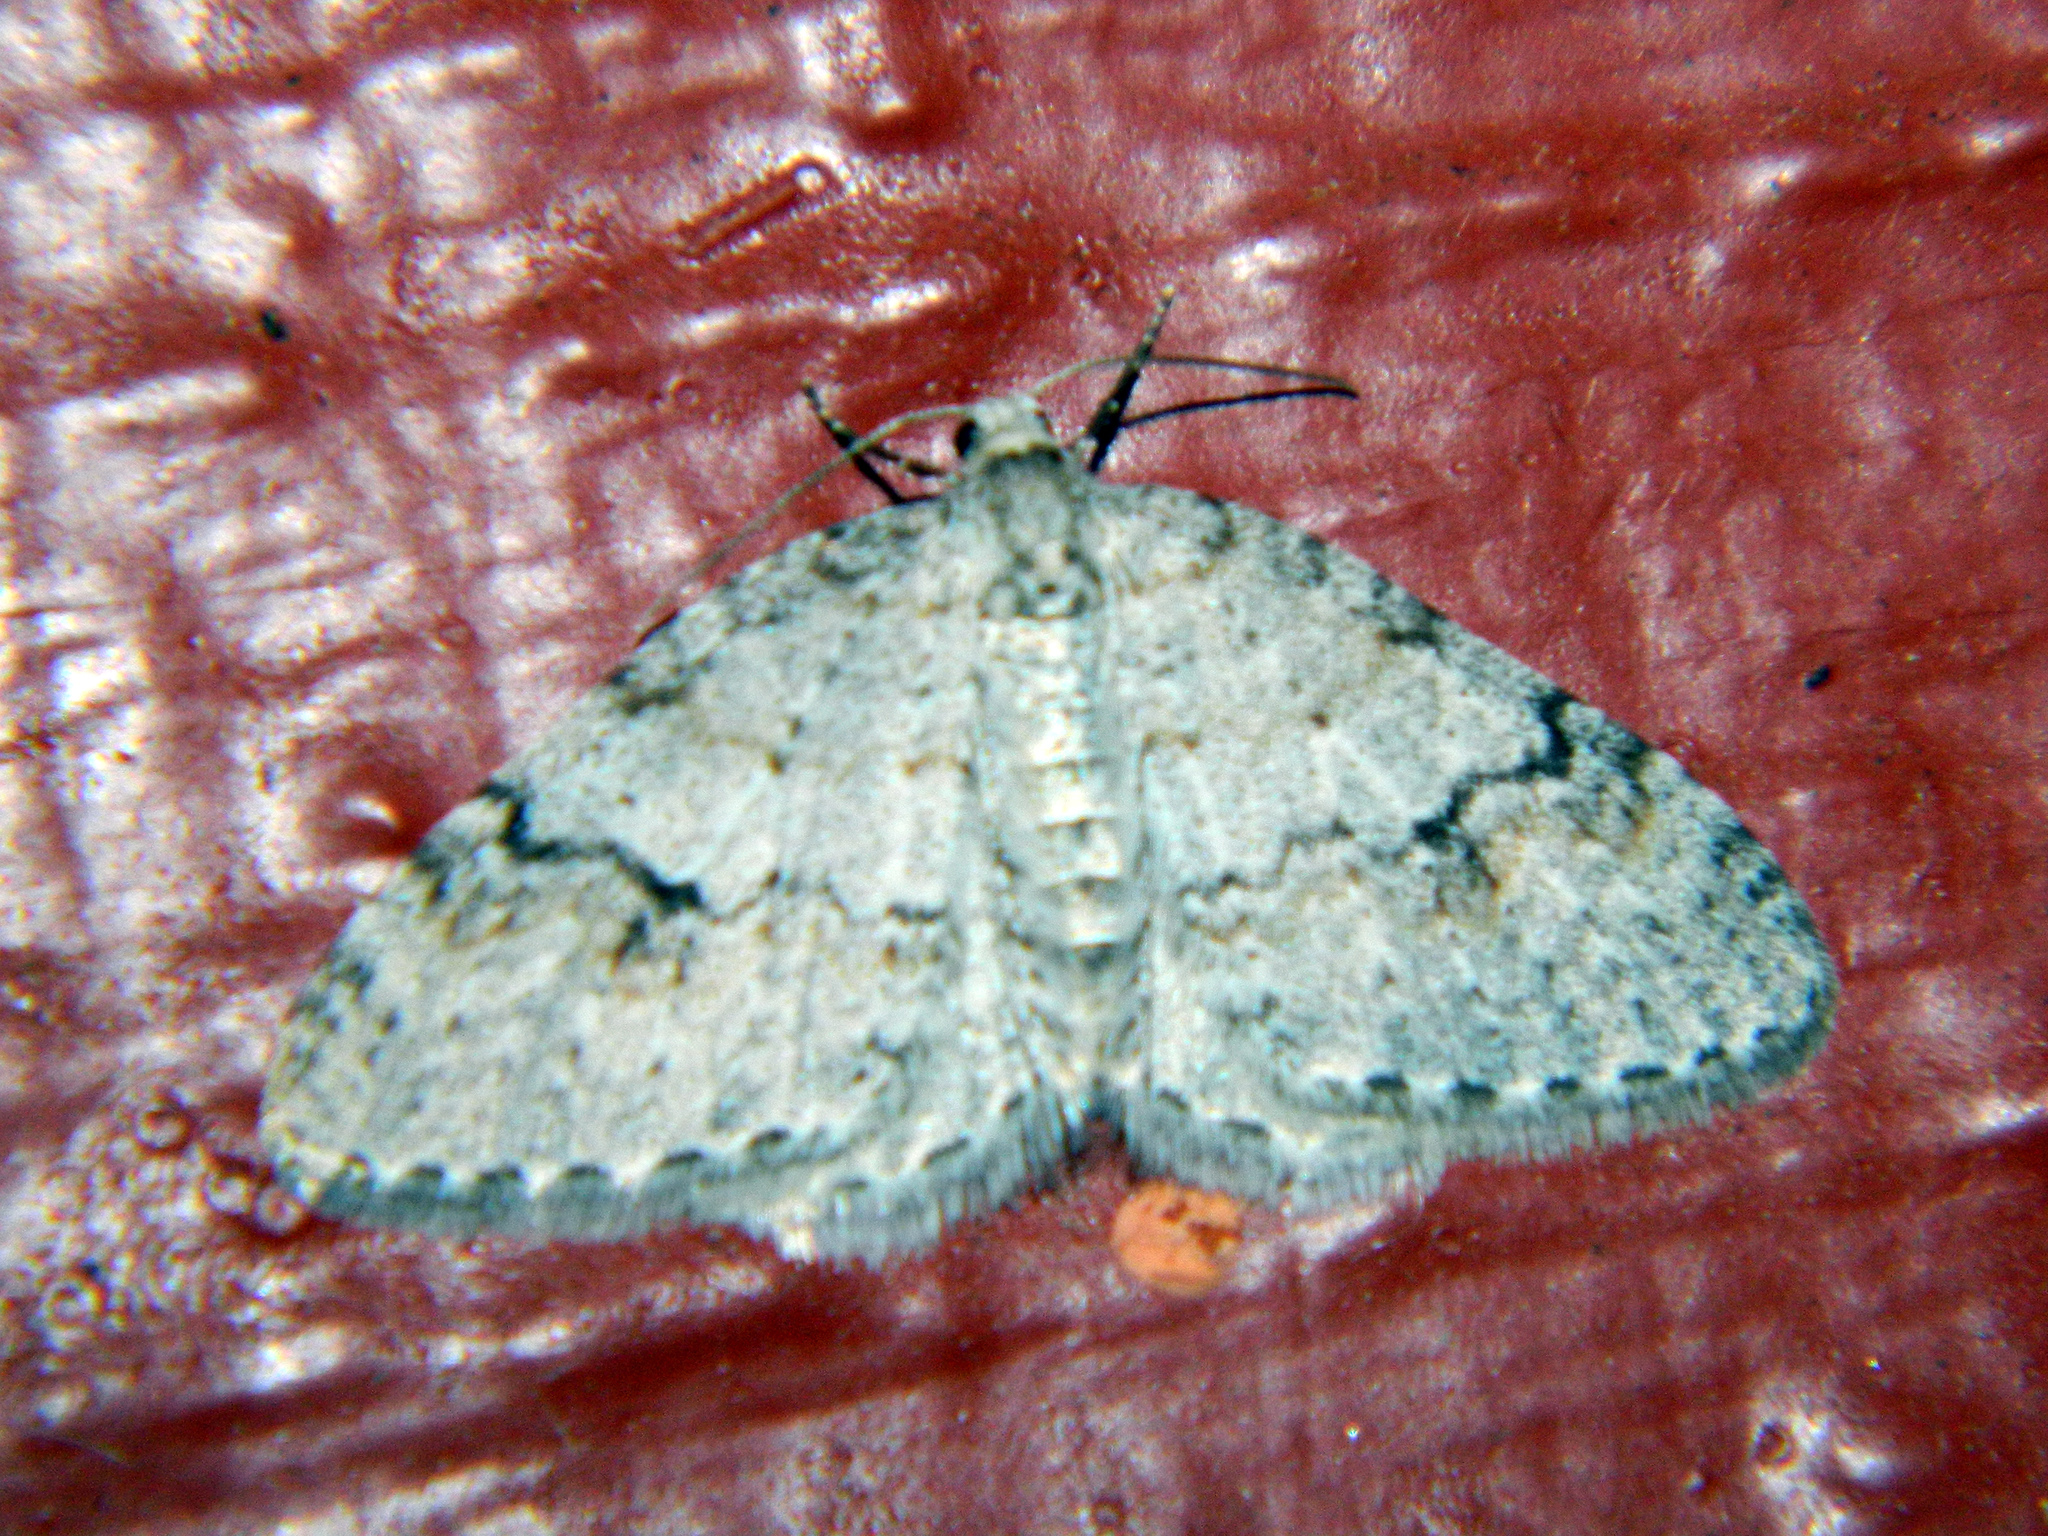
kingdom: Animalia
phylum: Arthropoda
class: Insecta
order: Lepidoptera
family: Geometridae
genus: Venusia
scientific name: Venusia comptaria
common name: Brown-shaded carpet
